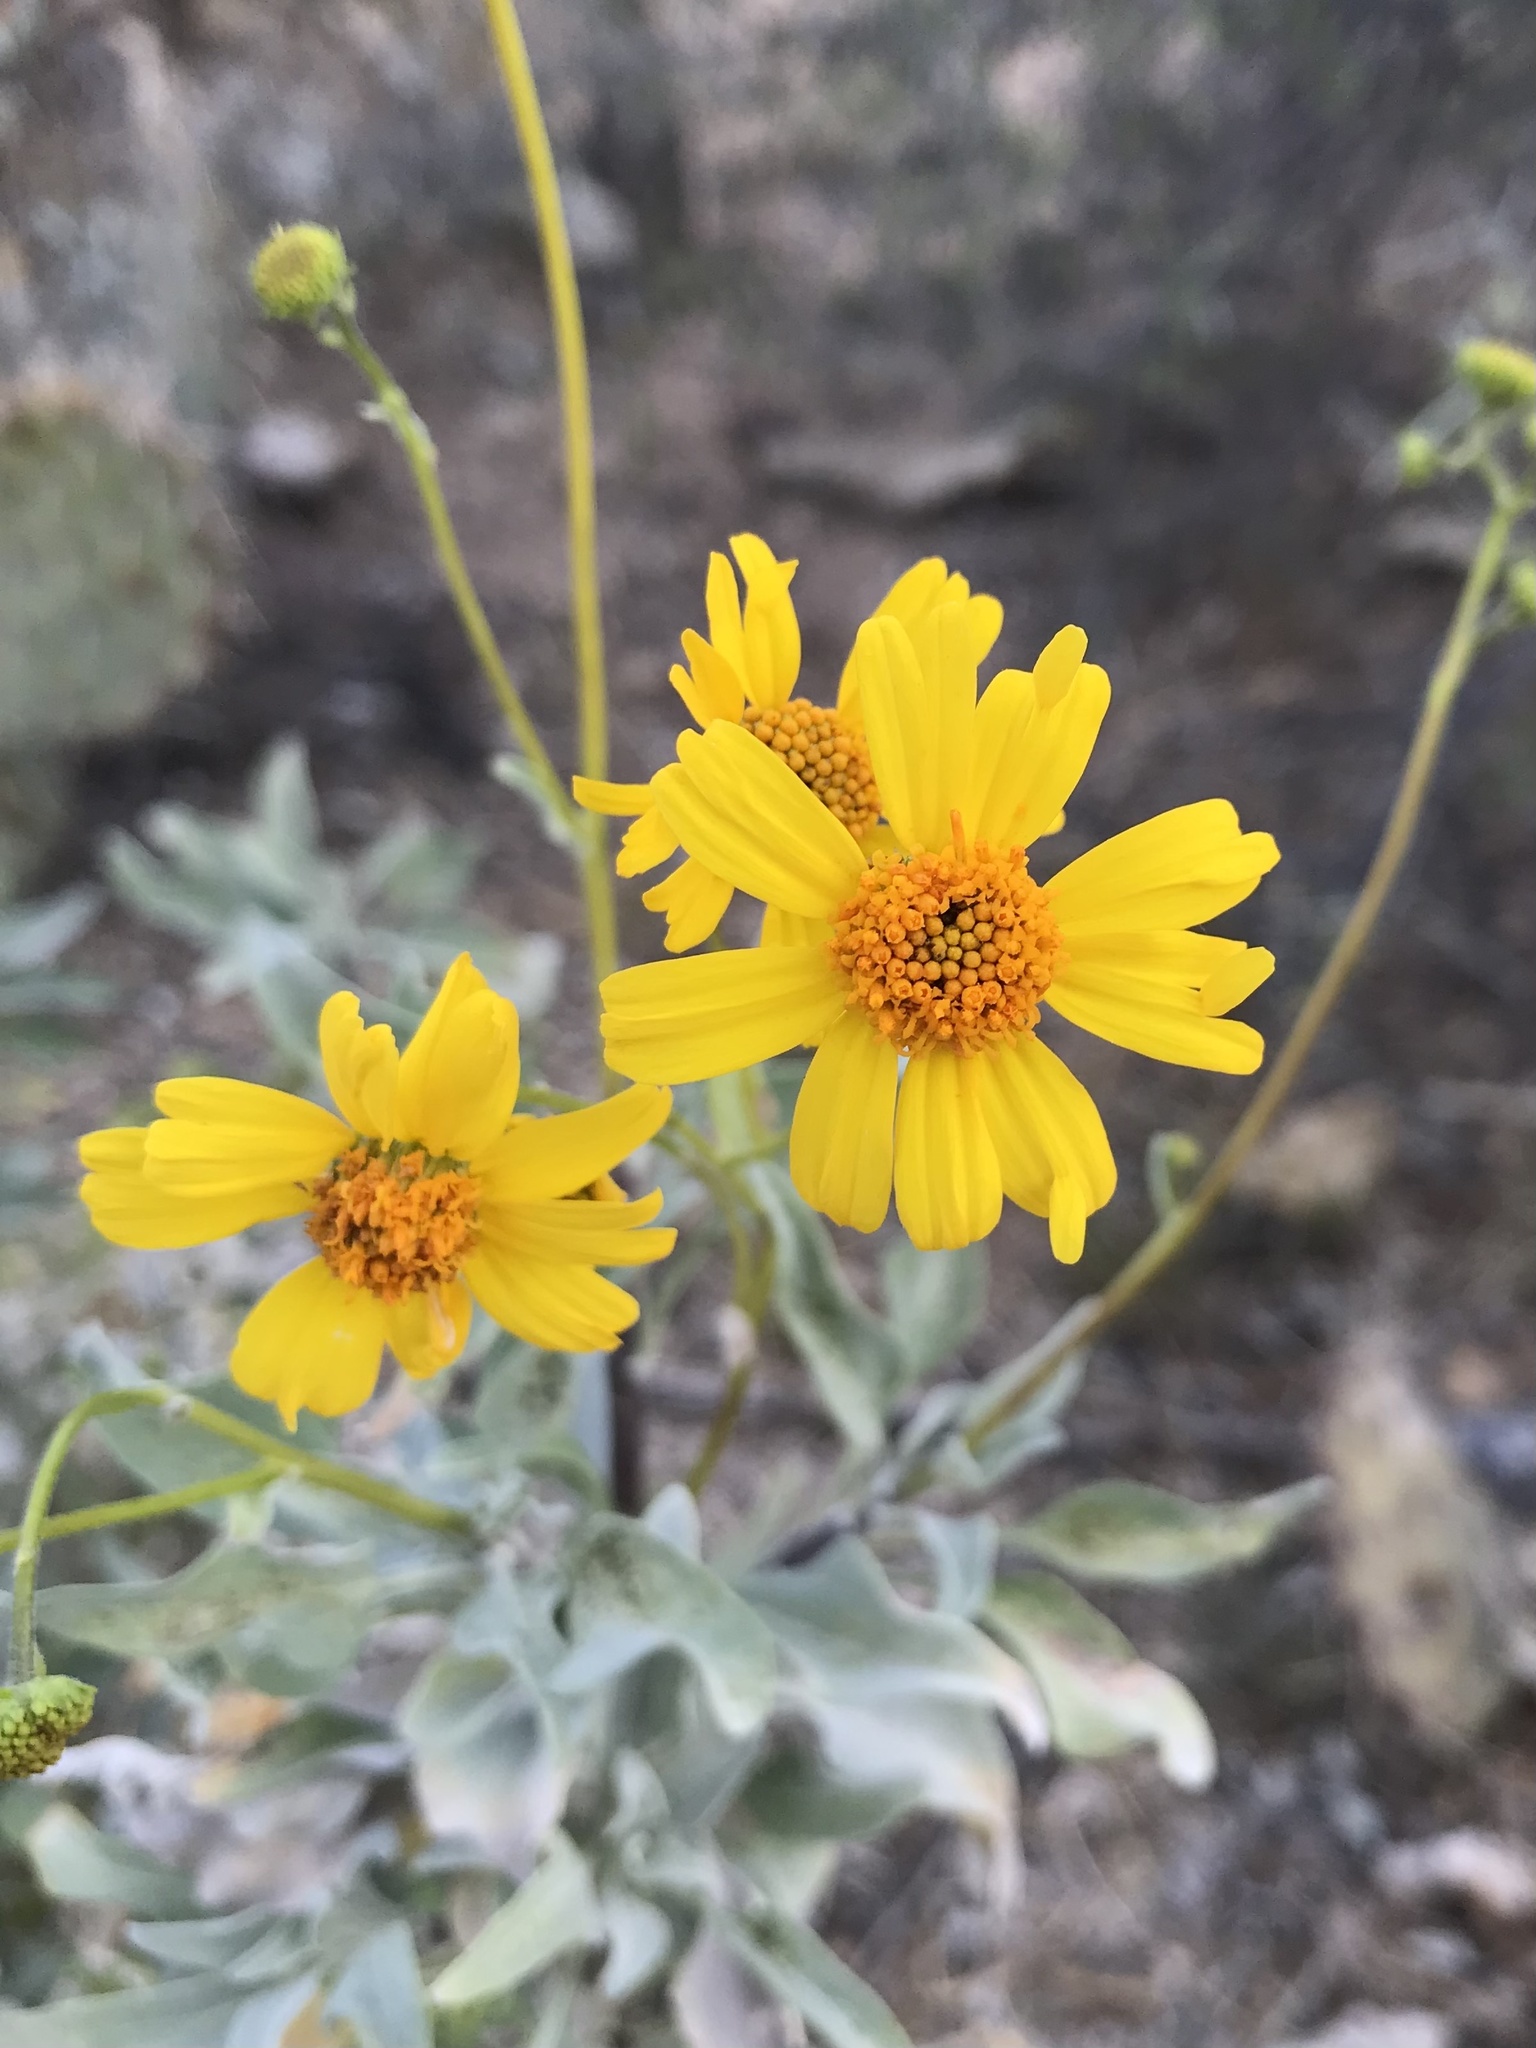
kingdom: Plantae
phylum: Tracheophyta
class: Magnoliopsida
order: Asterales
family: Asteraceae
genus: Encelia
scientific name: Encelia farinosa
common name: Brittlebush
